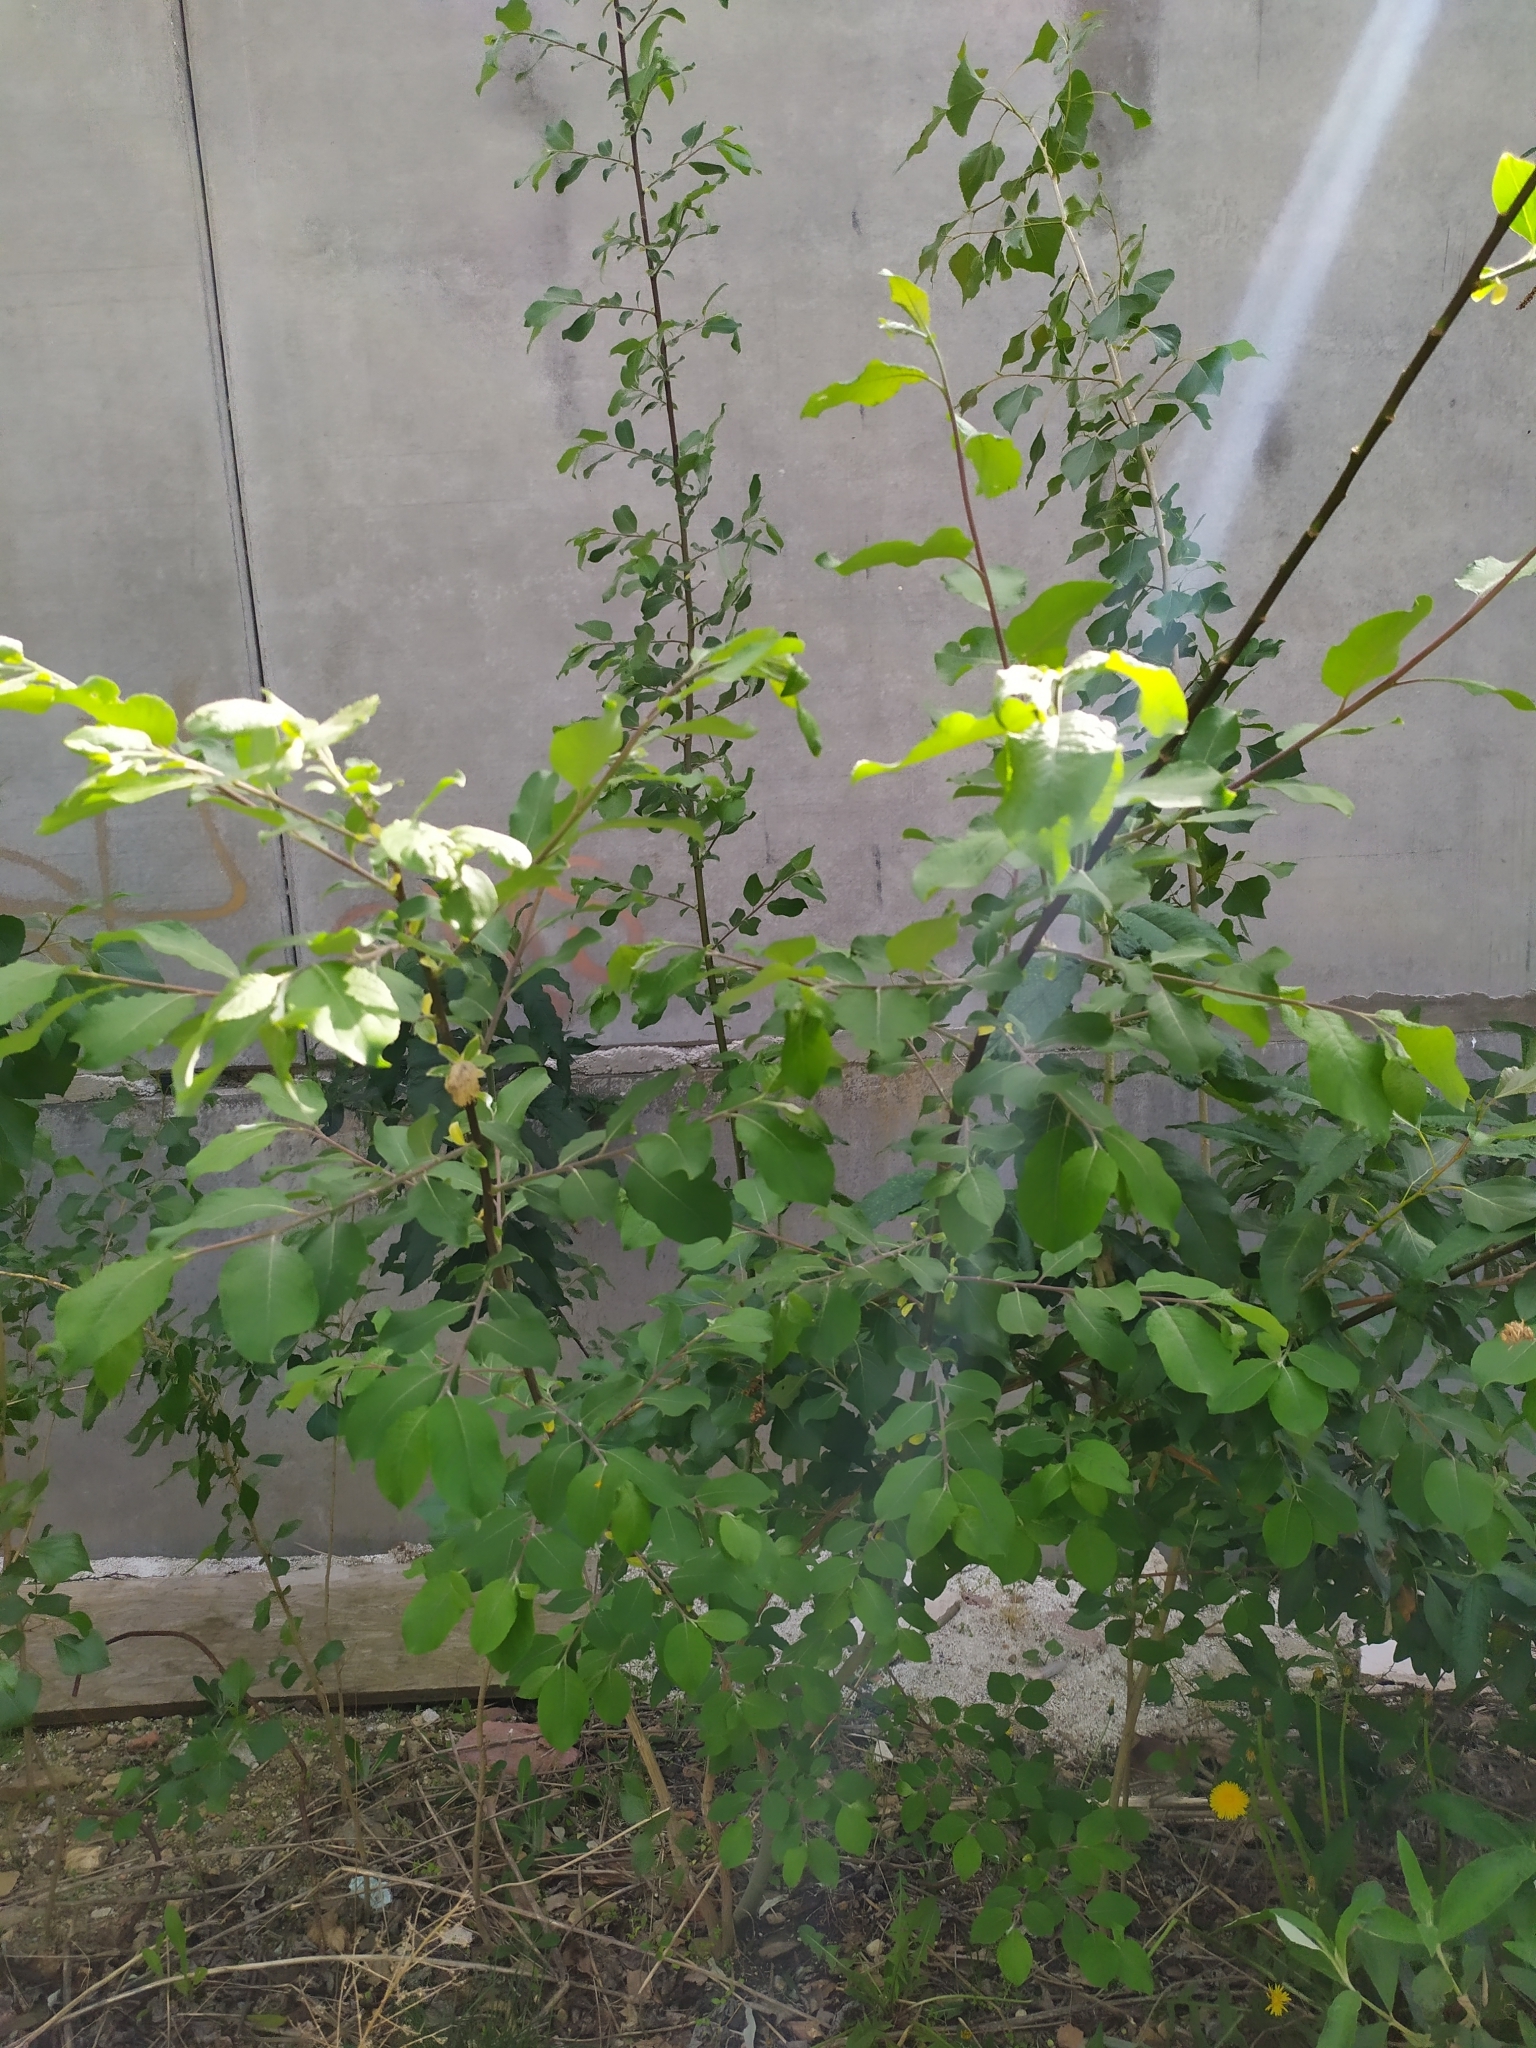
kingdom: Plantae
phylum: Tracheophyta
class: Magnoliopsida
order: Malpighiales
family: Salicaceae
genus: Salix
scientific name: Salix caprea
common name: Goat willow
